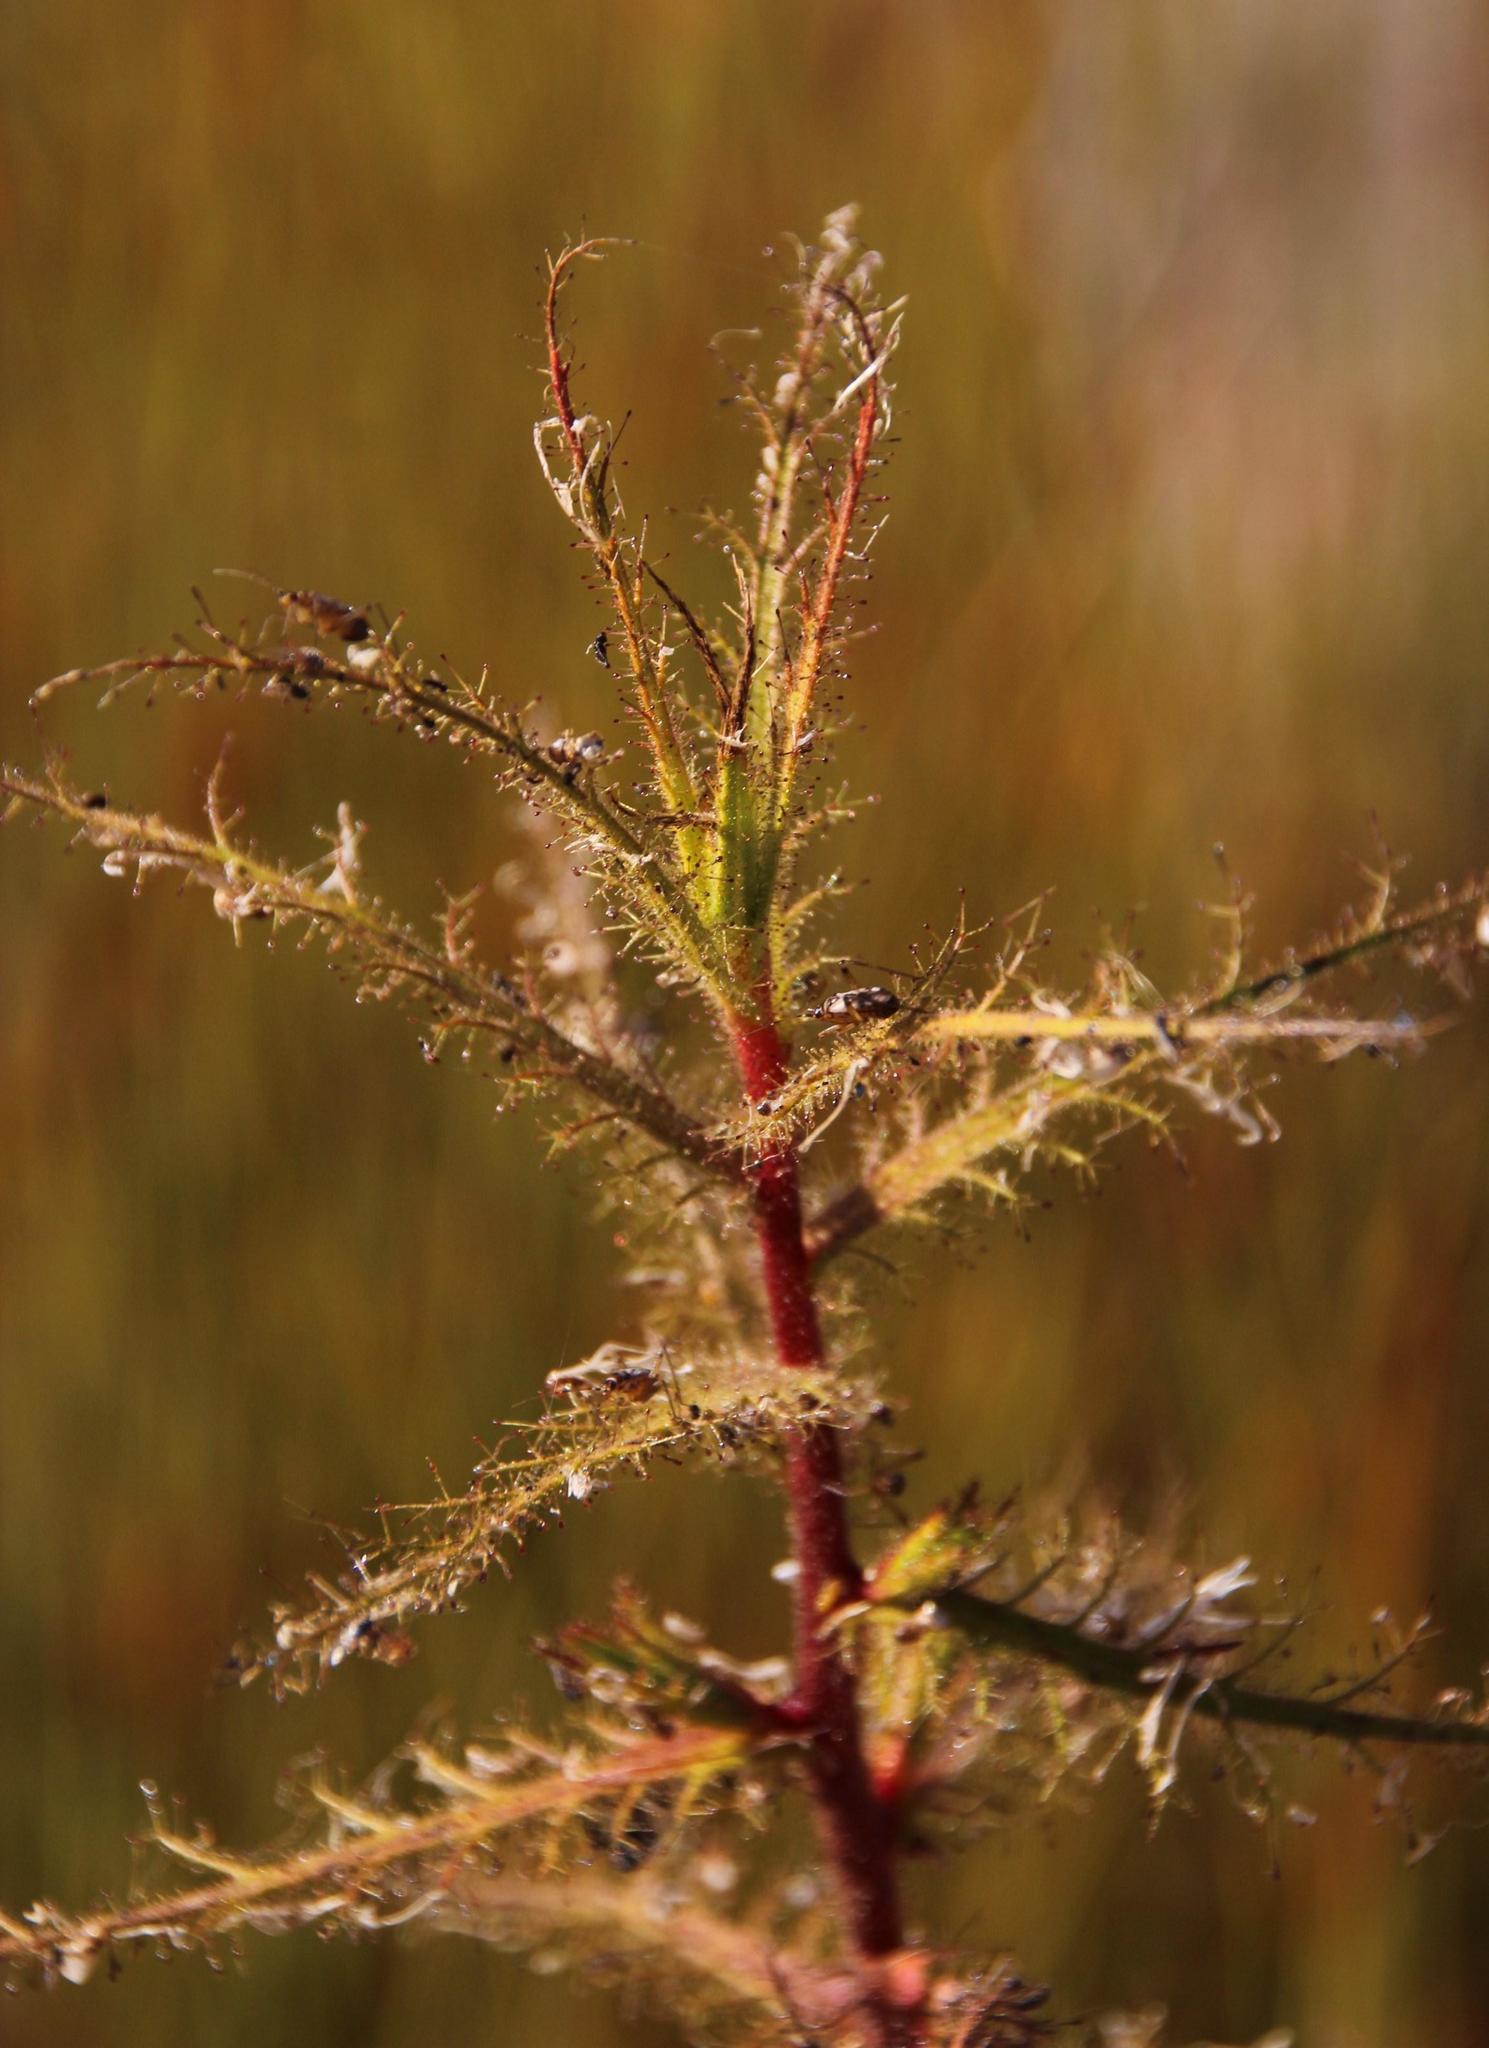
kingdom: Plantae
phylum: Tracheophyta
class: Magnoliopsida
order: Ericales
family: Roridulaceae
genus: Roridula
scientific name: Roridula dentata
